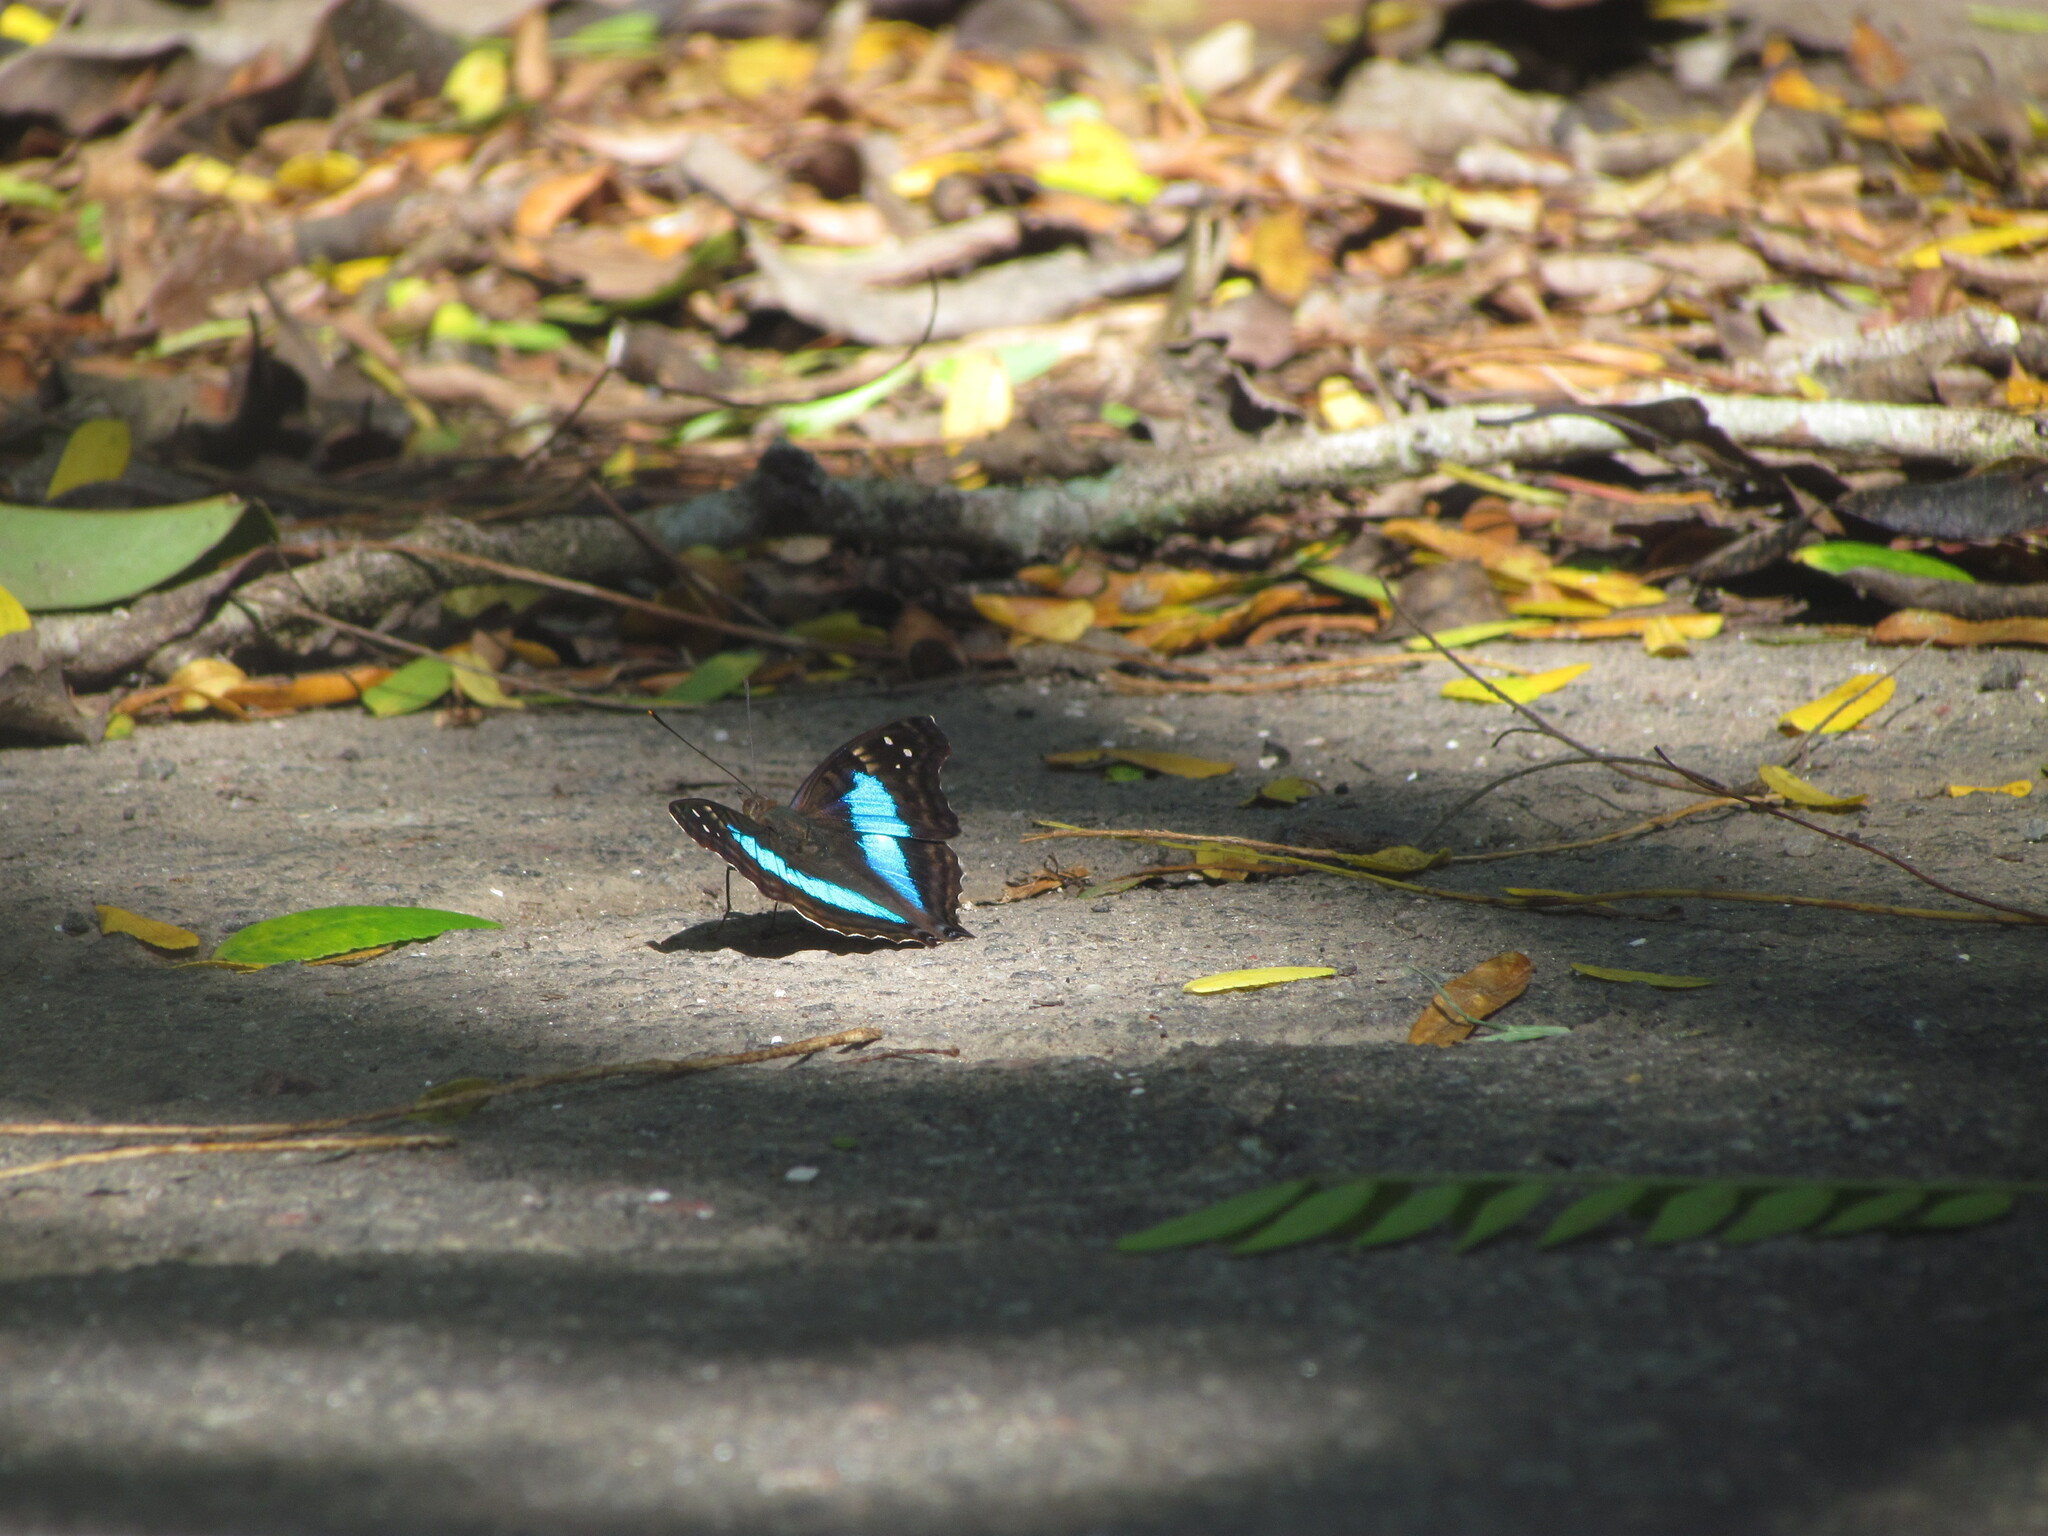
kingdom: Animalia
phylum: Arthropoda
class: Insecta
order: Lepidoptera
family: Nymphalidae
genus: Doxocopa
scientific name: Doxocopa laurentia
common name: Turquoise emperor
